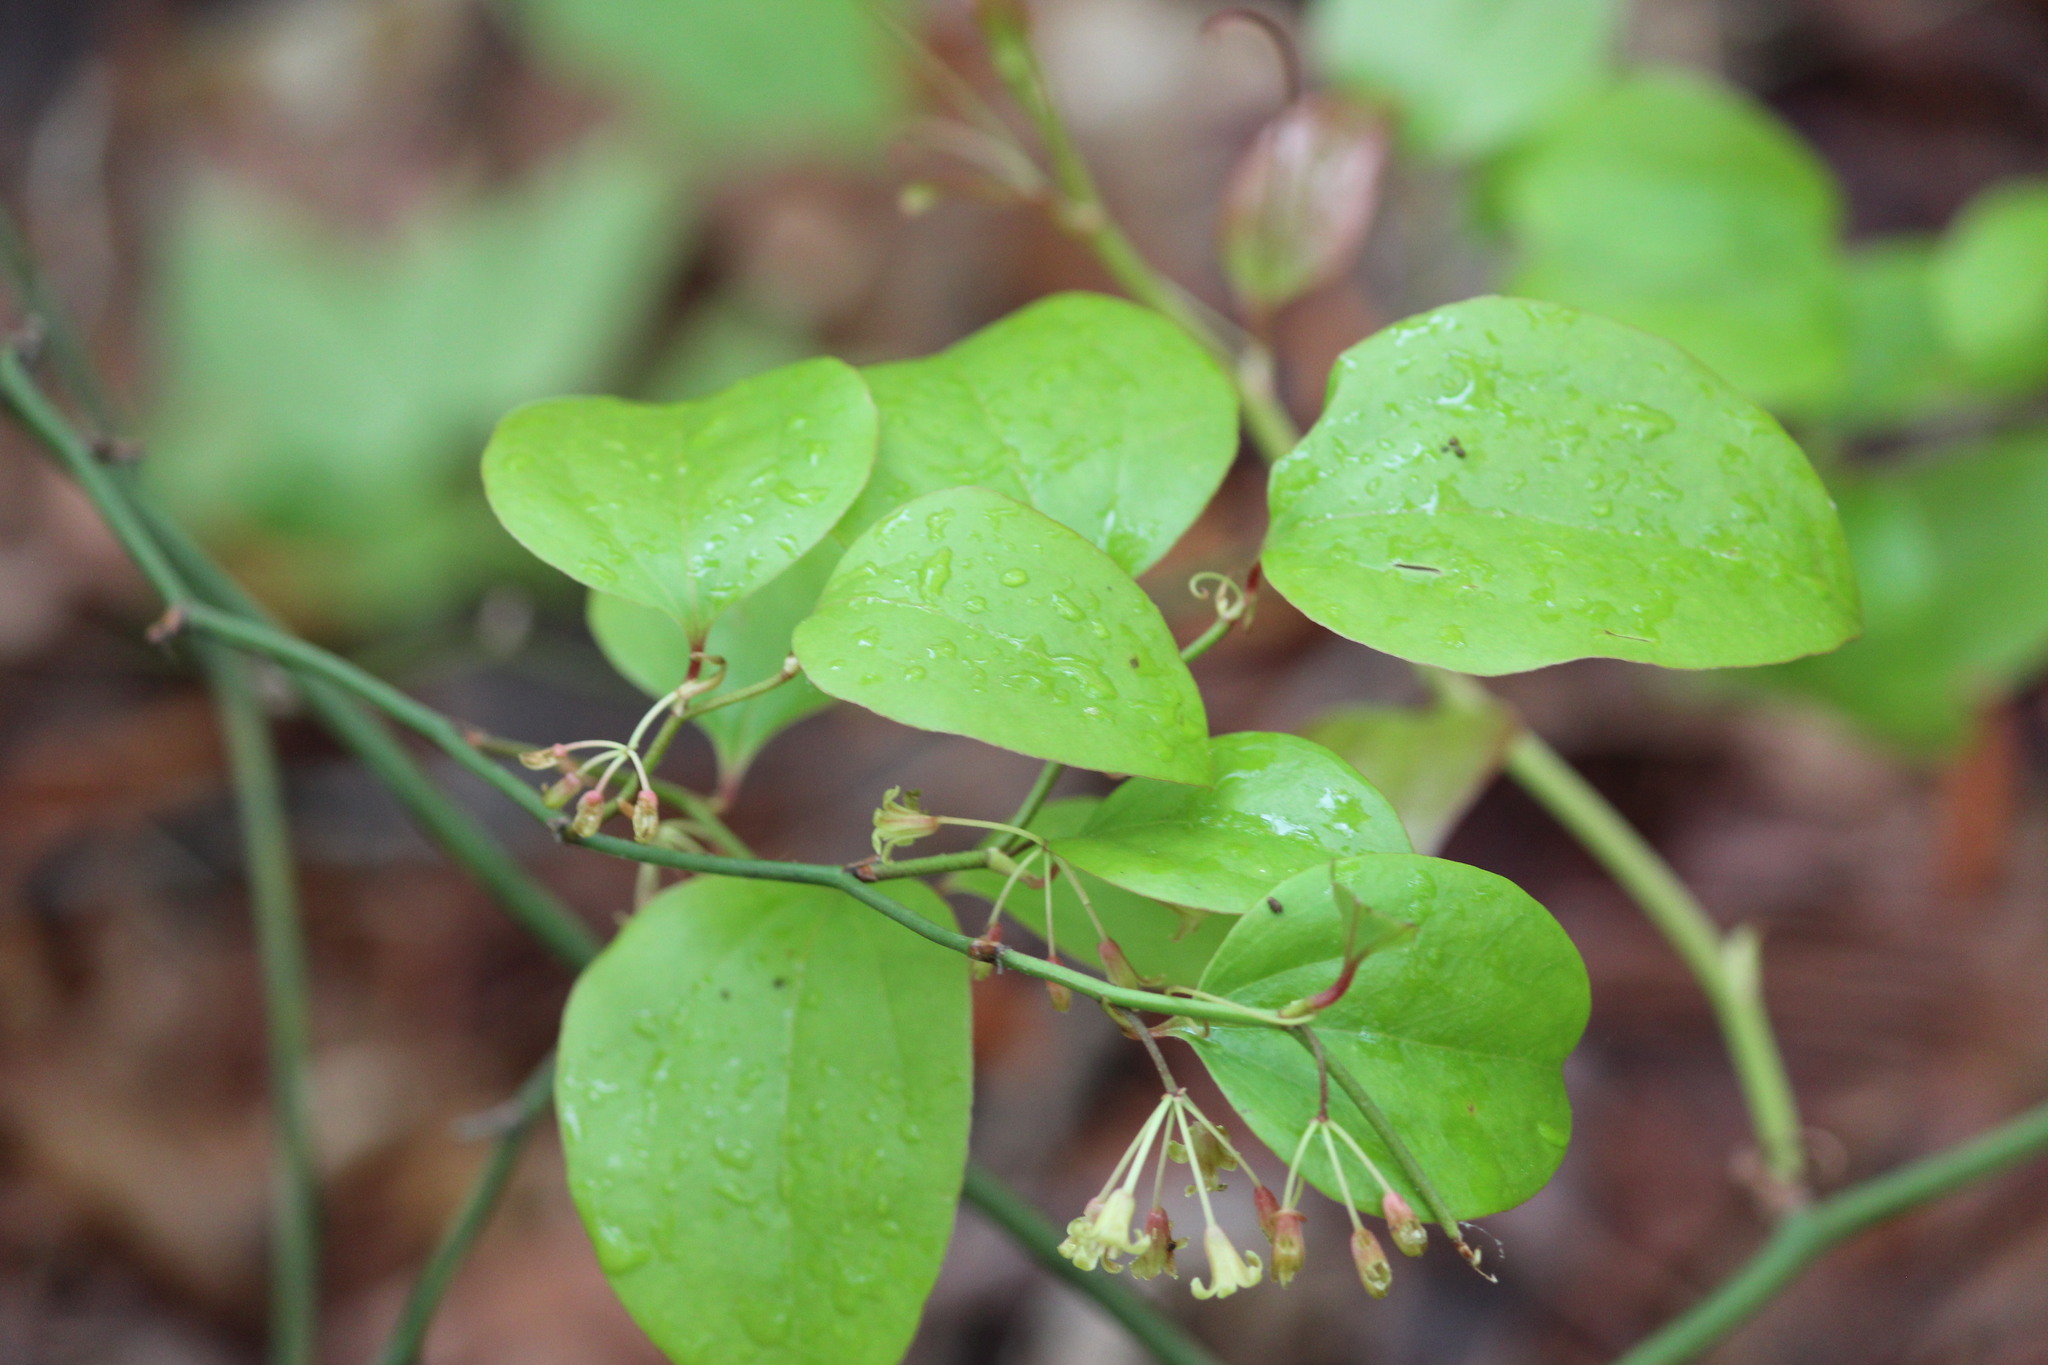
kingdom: Plantae
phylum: Tracheophyta
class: Liliopsida
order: Liliales
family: Smilacaceae
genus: Smilax
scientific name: Smilax rotundifolia
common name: Bullbriar
